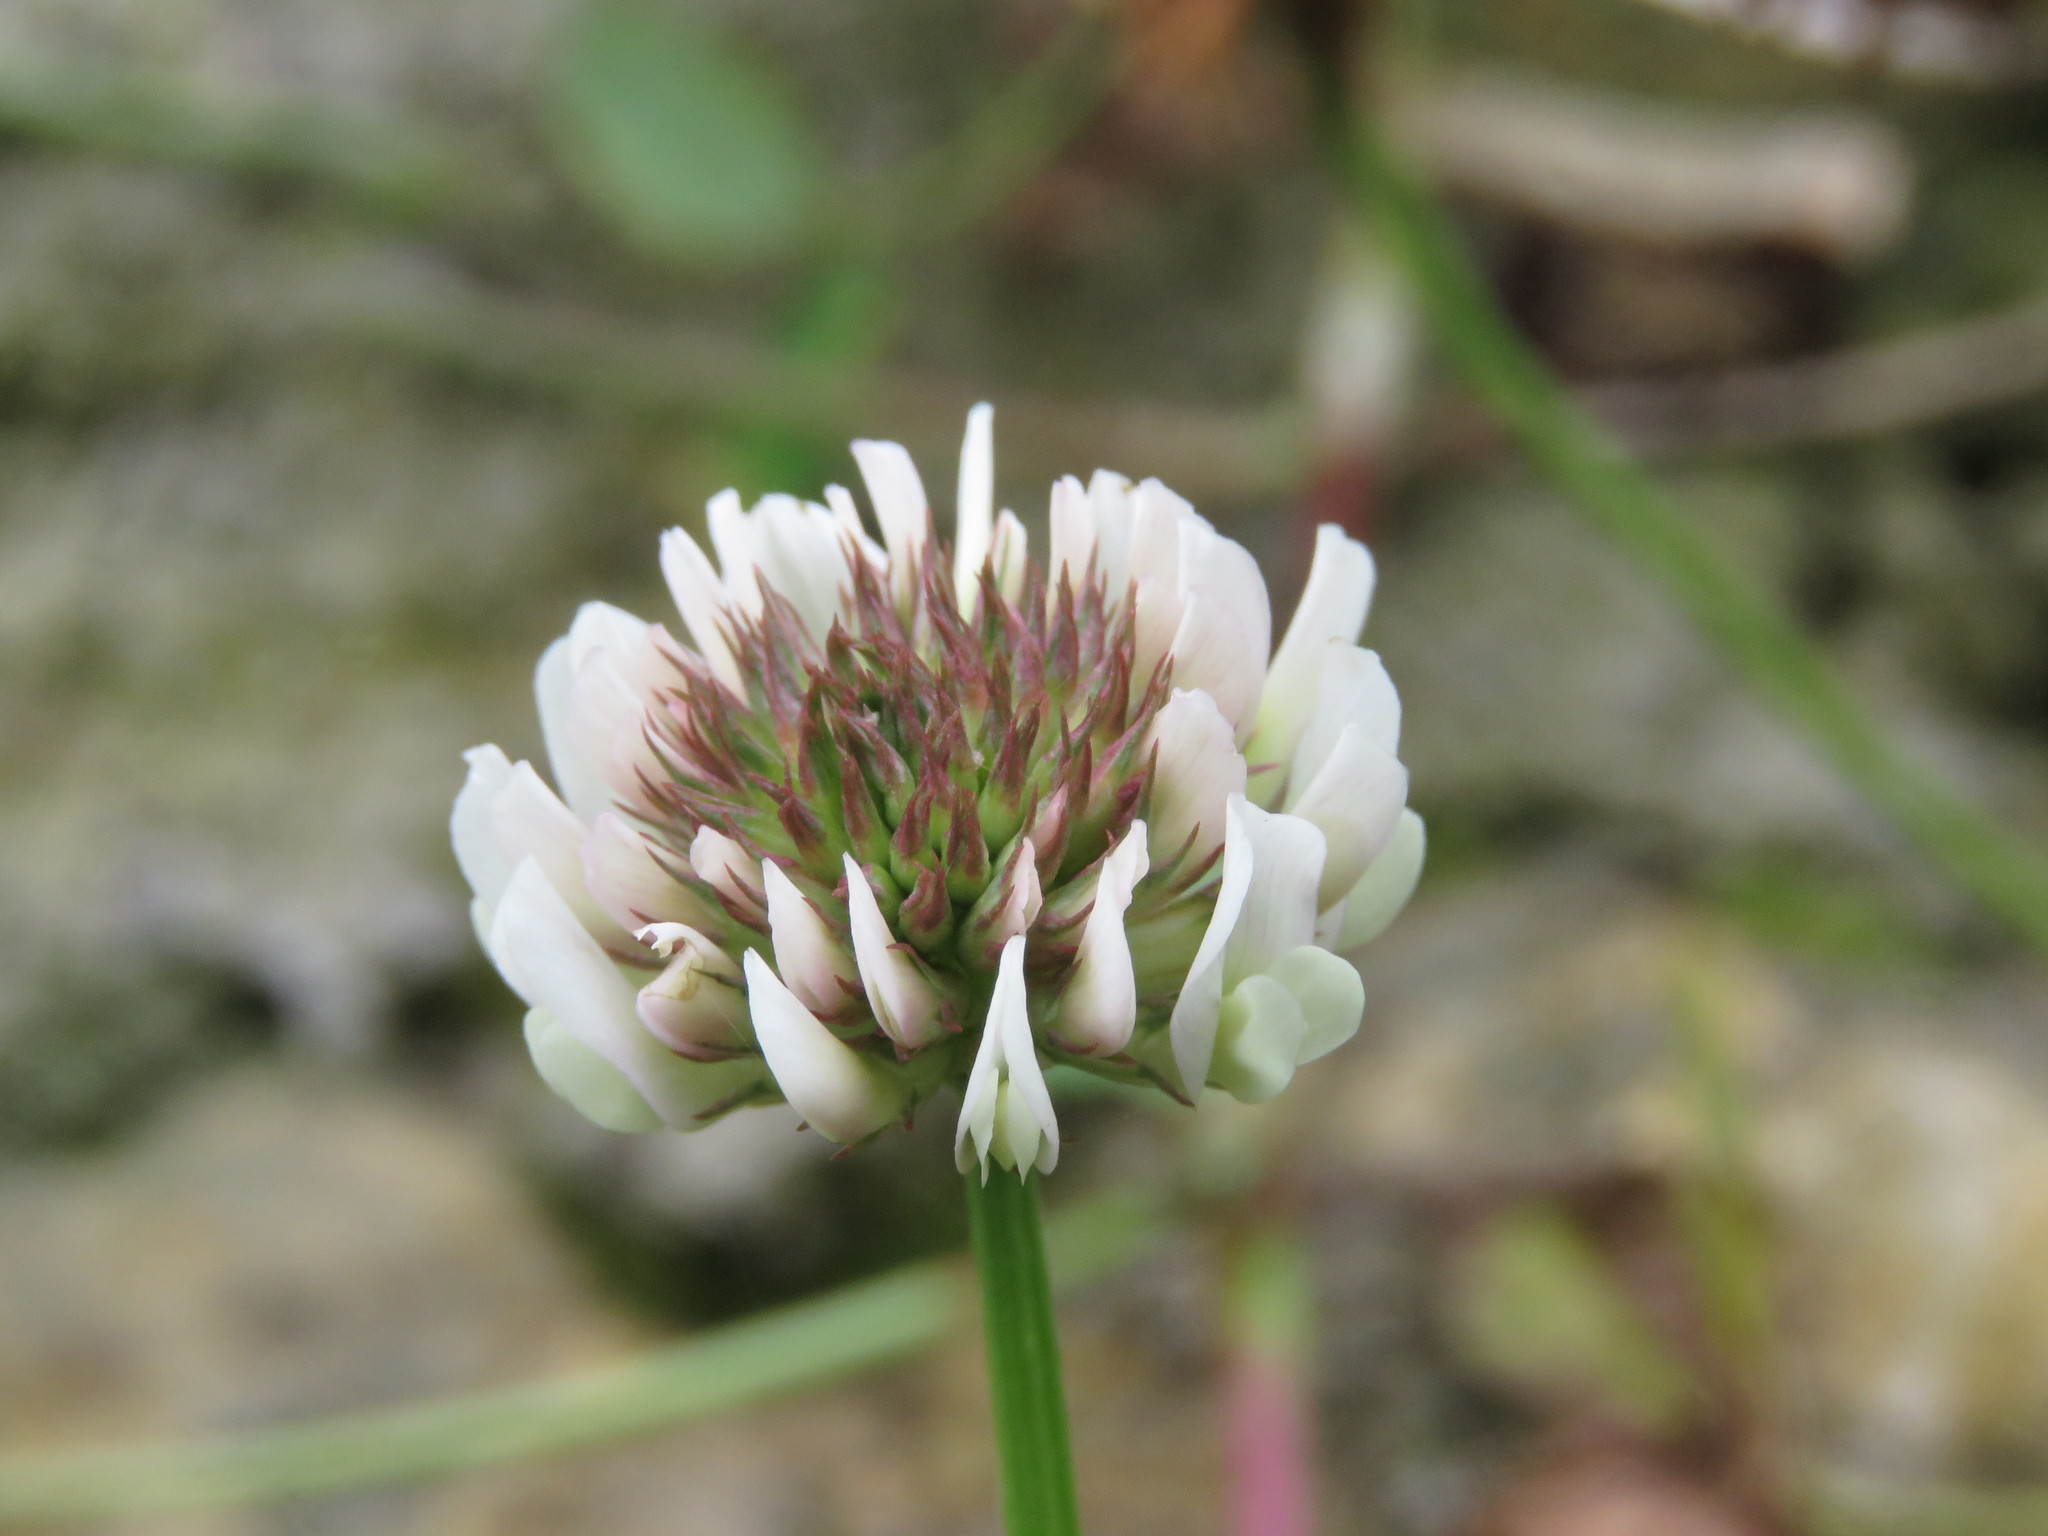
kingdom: Plantae
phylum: Tracheophyta
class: Magnoliopsida
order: Fabales
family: Fabaceae
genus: Trifolium
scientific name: Trifolium repens
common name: White clover
